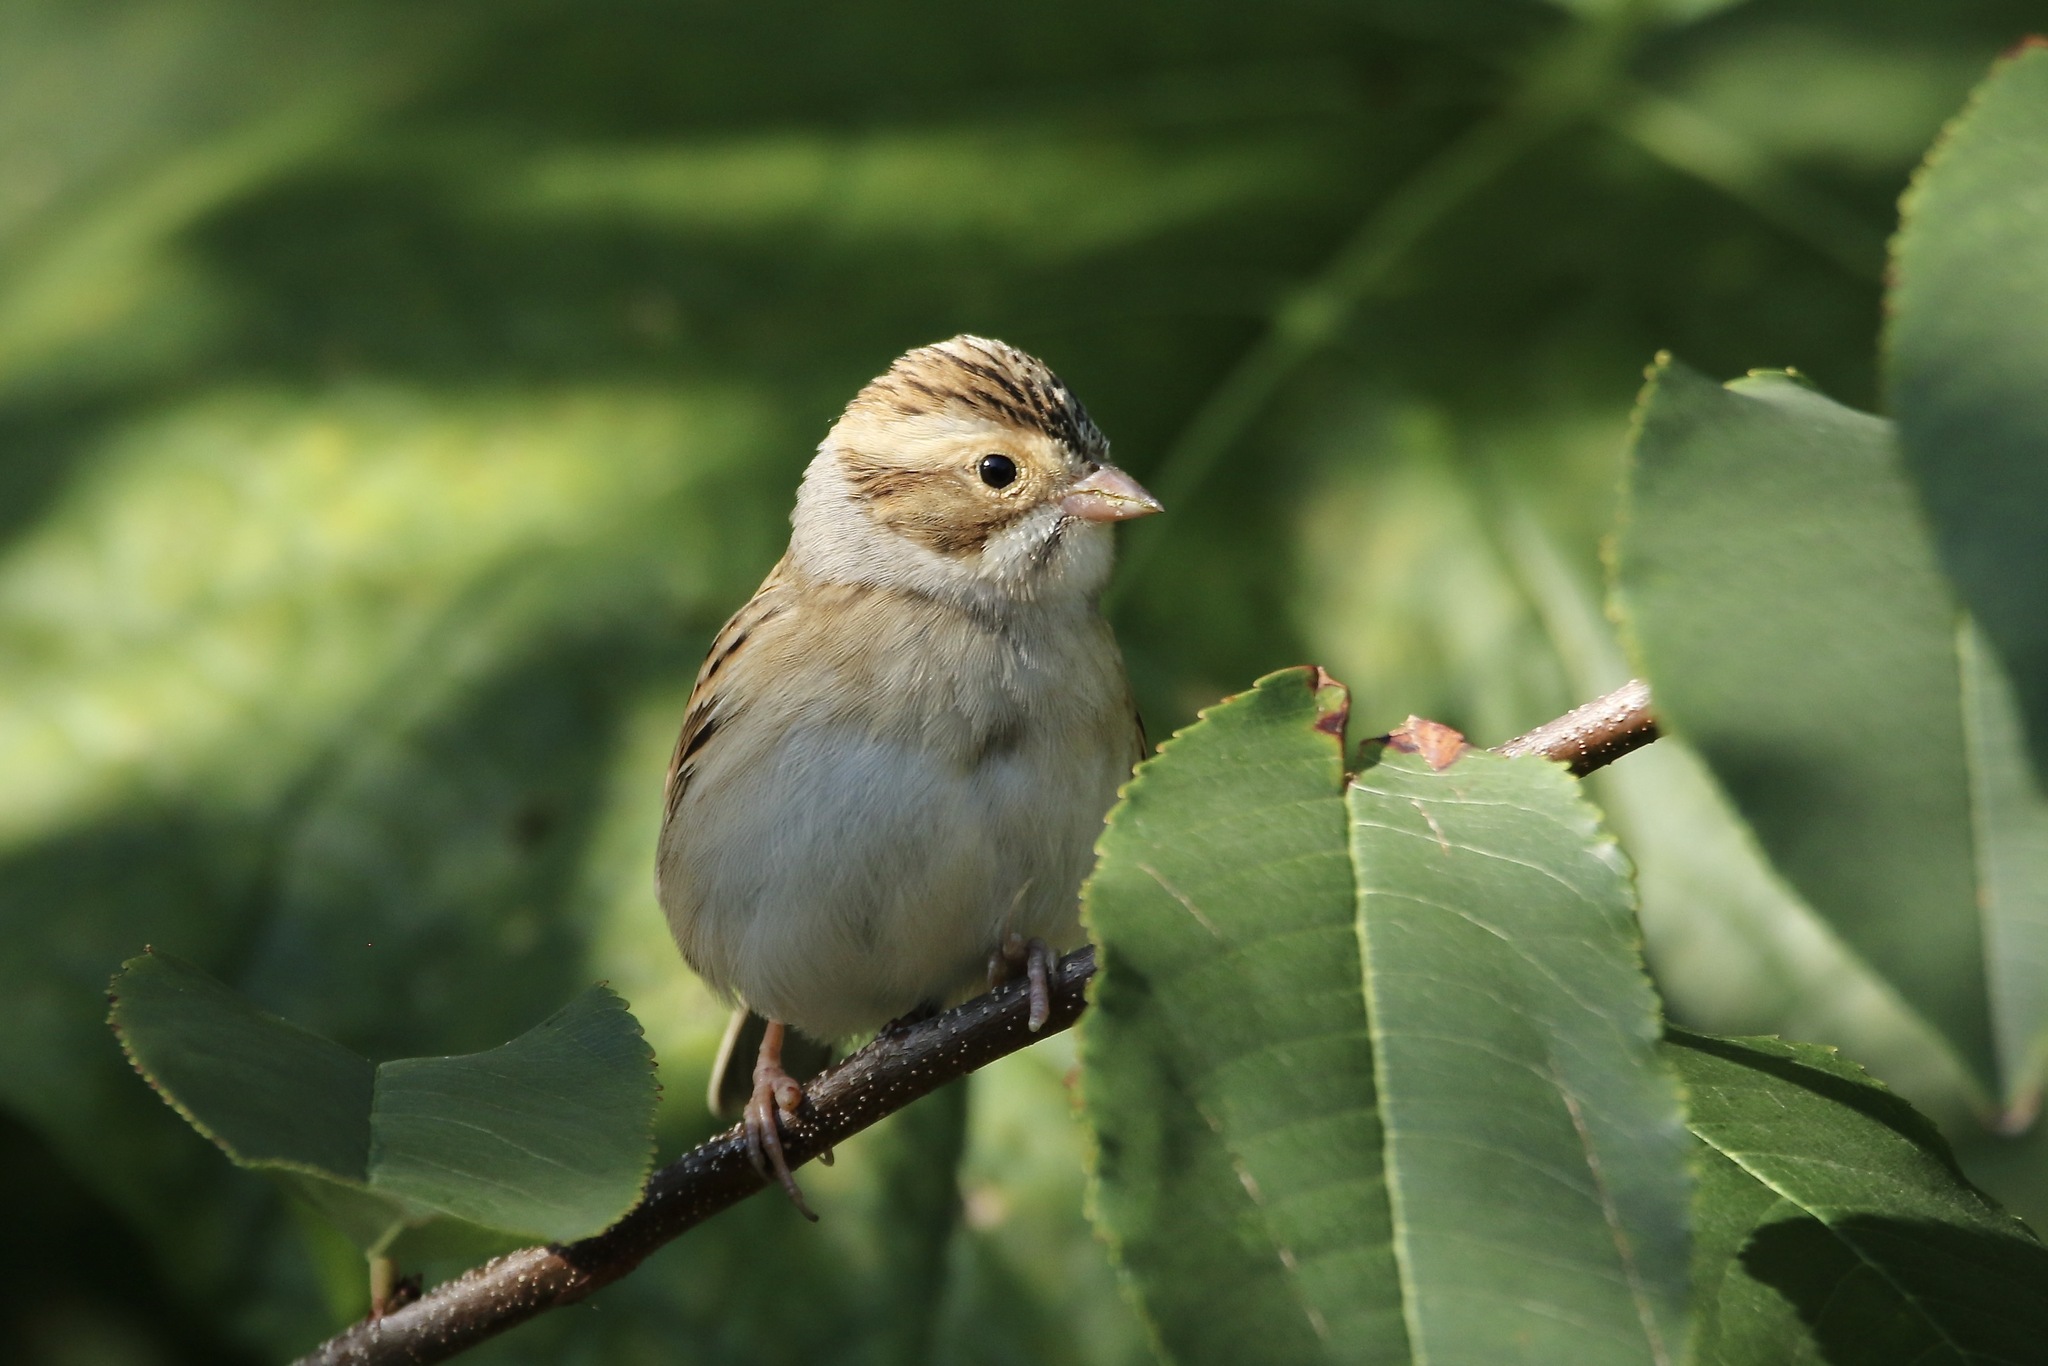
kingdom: Animalia
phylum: Chordata
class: Aves
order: Passeriformes
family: Passerellidae
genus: Spizella
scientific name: Spizella pallida
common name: Clay-colored sparrow
